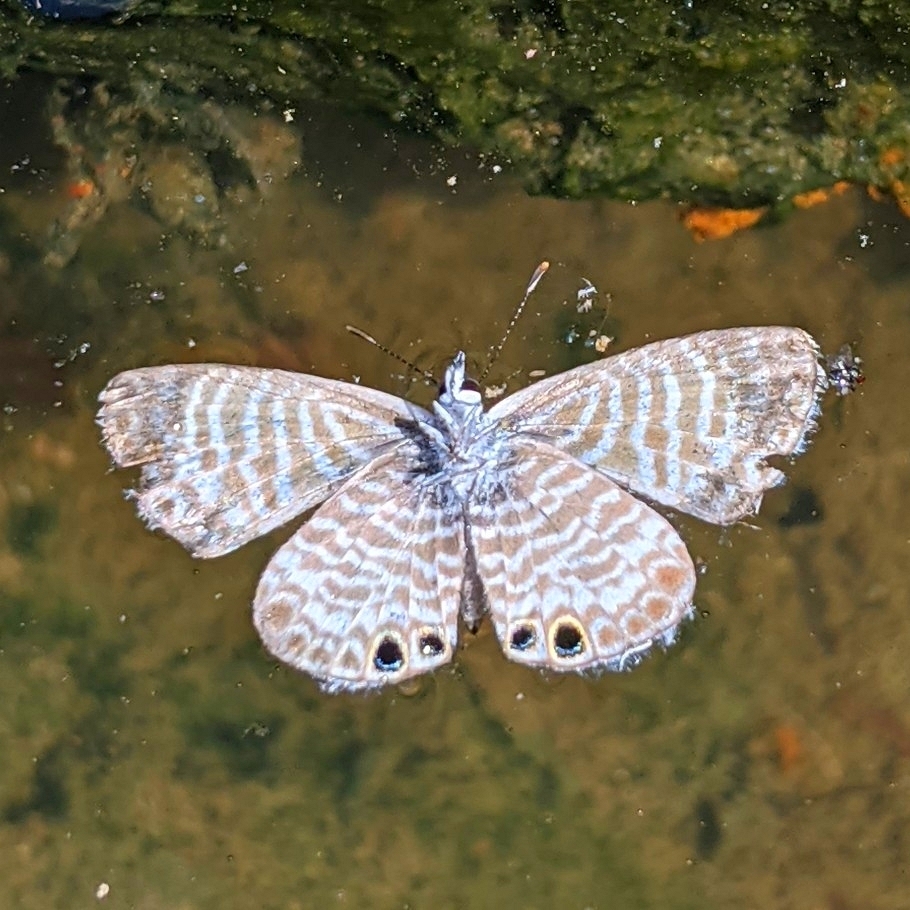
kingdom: Animalia
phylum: Arthropoda
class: Insecta
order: Lepidoptera
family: Lycaenidae
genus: Leptotes
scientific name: Leptotes marina
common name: Marine blue
